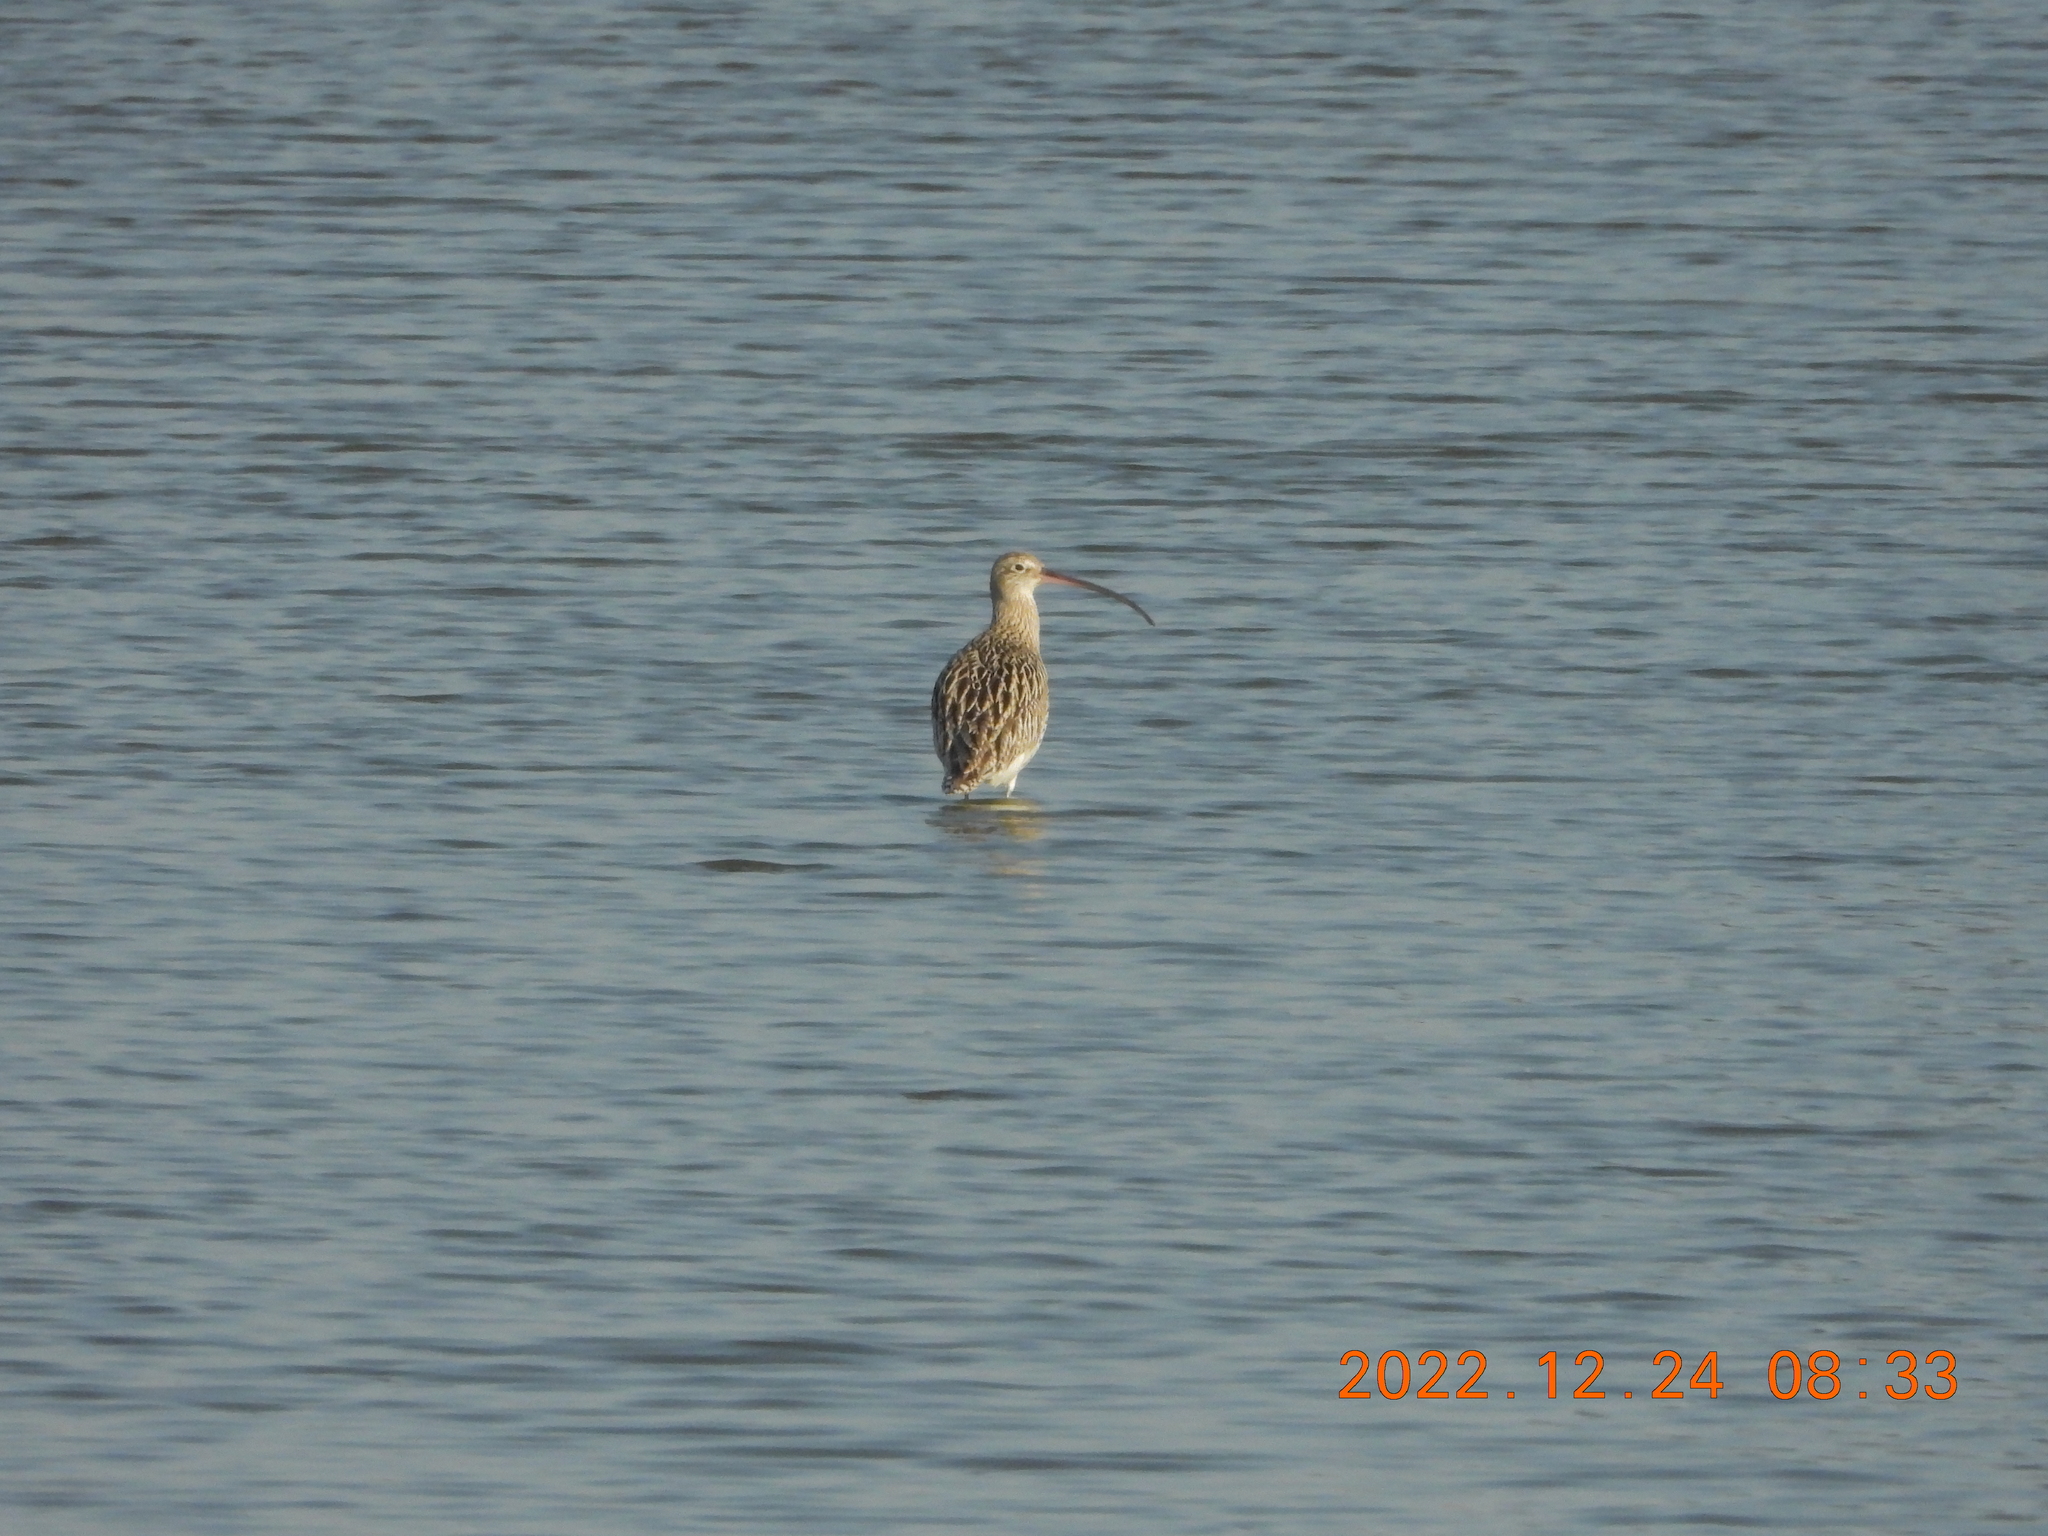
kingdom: Animalia
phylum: Chordata
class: Aves
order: Charadriiformes
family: Scolopacidae
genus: Numenius
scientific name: Numenius arquata
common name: Eurasian curlew
